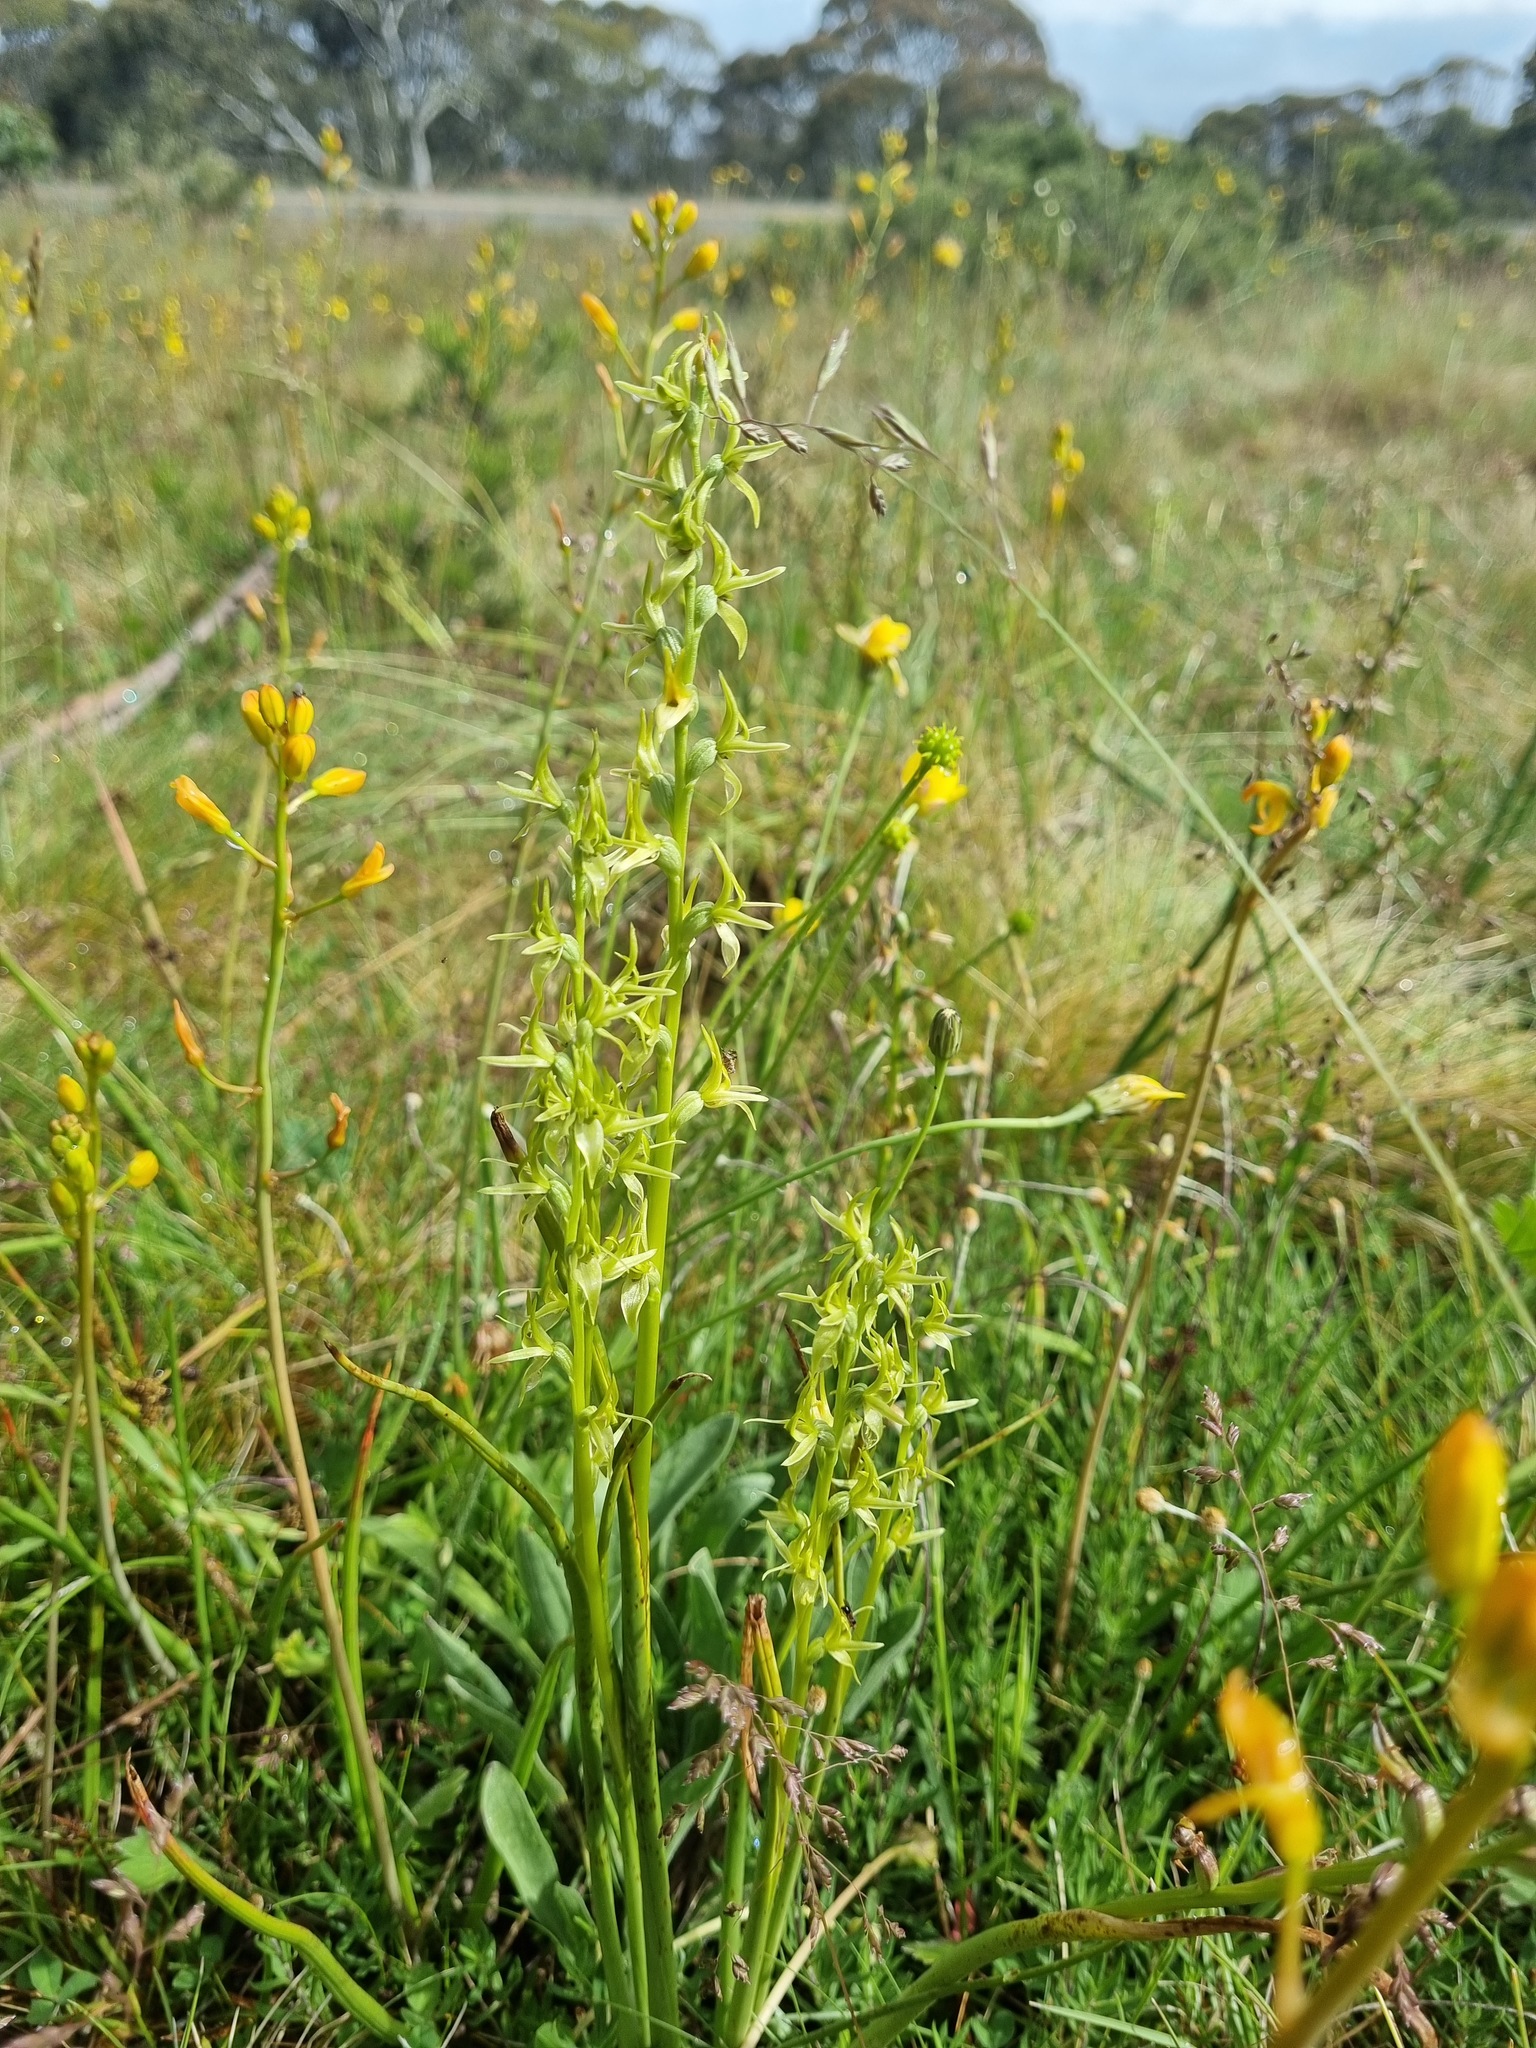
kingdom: Plantae
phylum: Tracheophyta
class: Liliopsida
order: Asparagales
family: Orchidaceae
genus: Prasophyllum
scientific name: Prasophyllum alpinum
